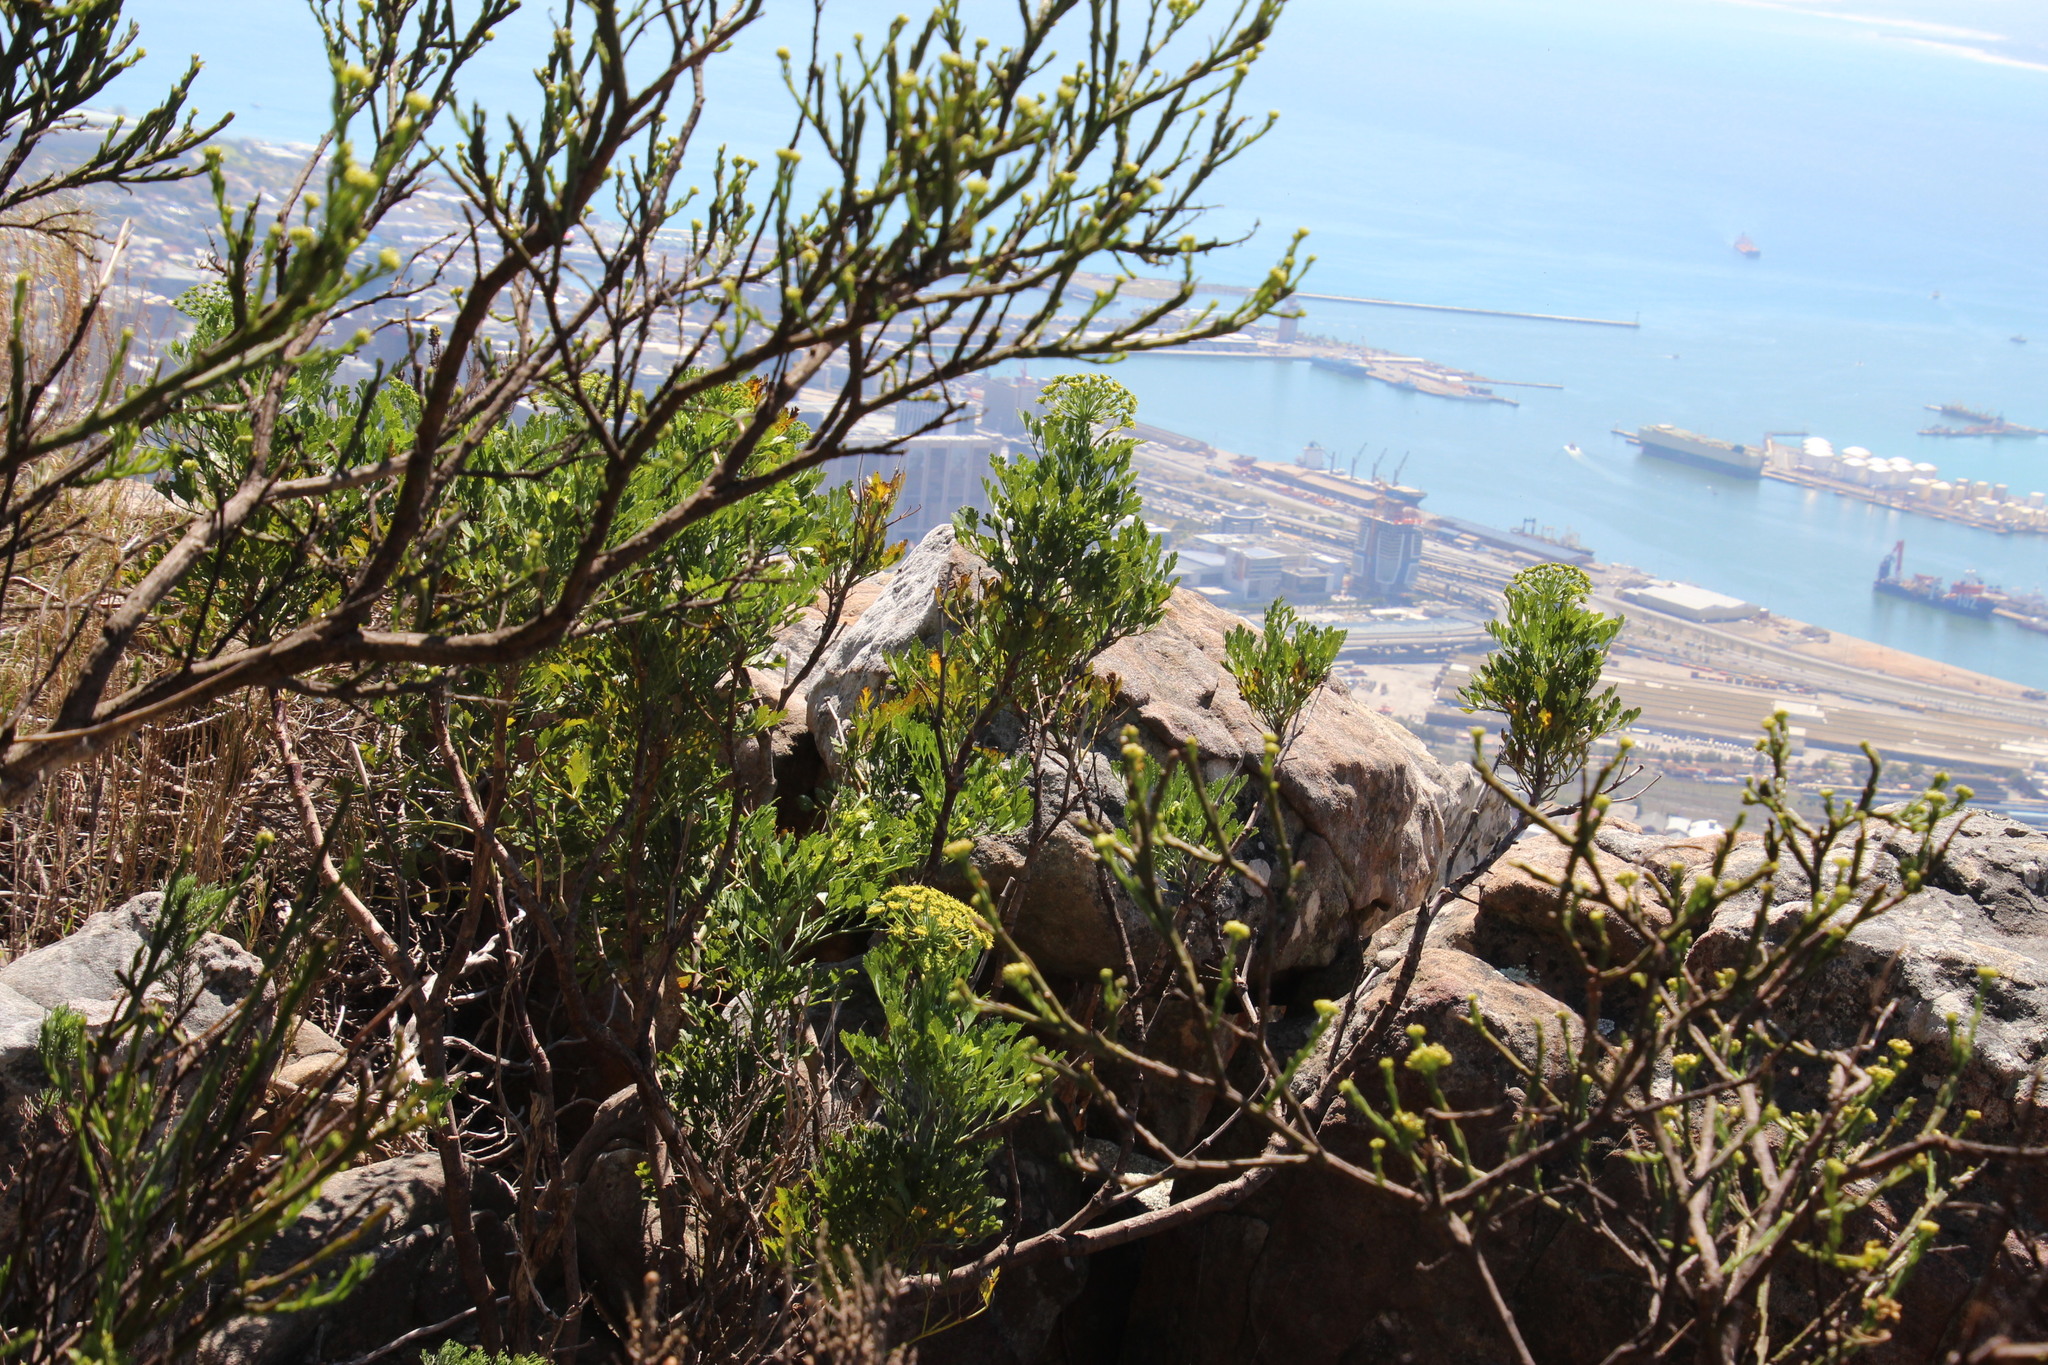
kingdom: Plantae
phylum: Tracheophyta
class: Magnoliopsida
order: Apiales
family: Apiaceae
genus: Notobubon
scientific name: Notobubon galbanum
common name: Blisterbush
